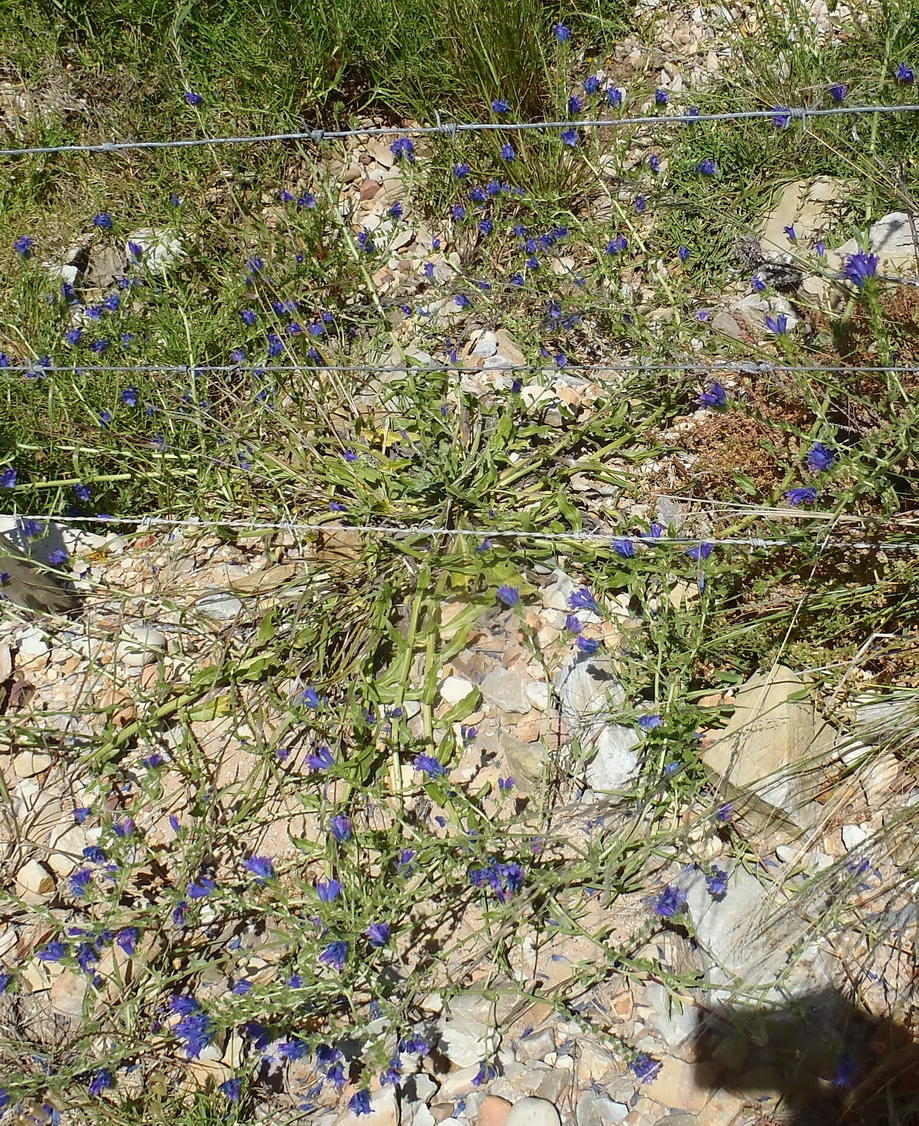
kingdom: Plantae
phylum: Tracheophyta
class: Magnoliopsida
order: Boraginales
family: Boraginaceae
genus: Echium
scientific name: Echium plantagineum
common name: Purple viper's-bugloss
